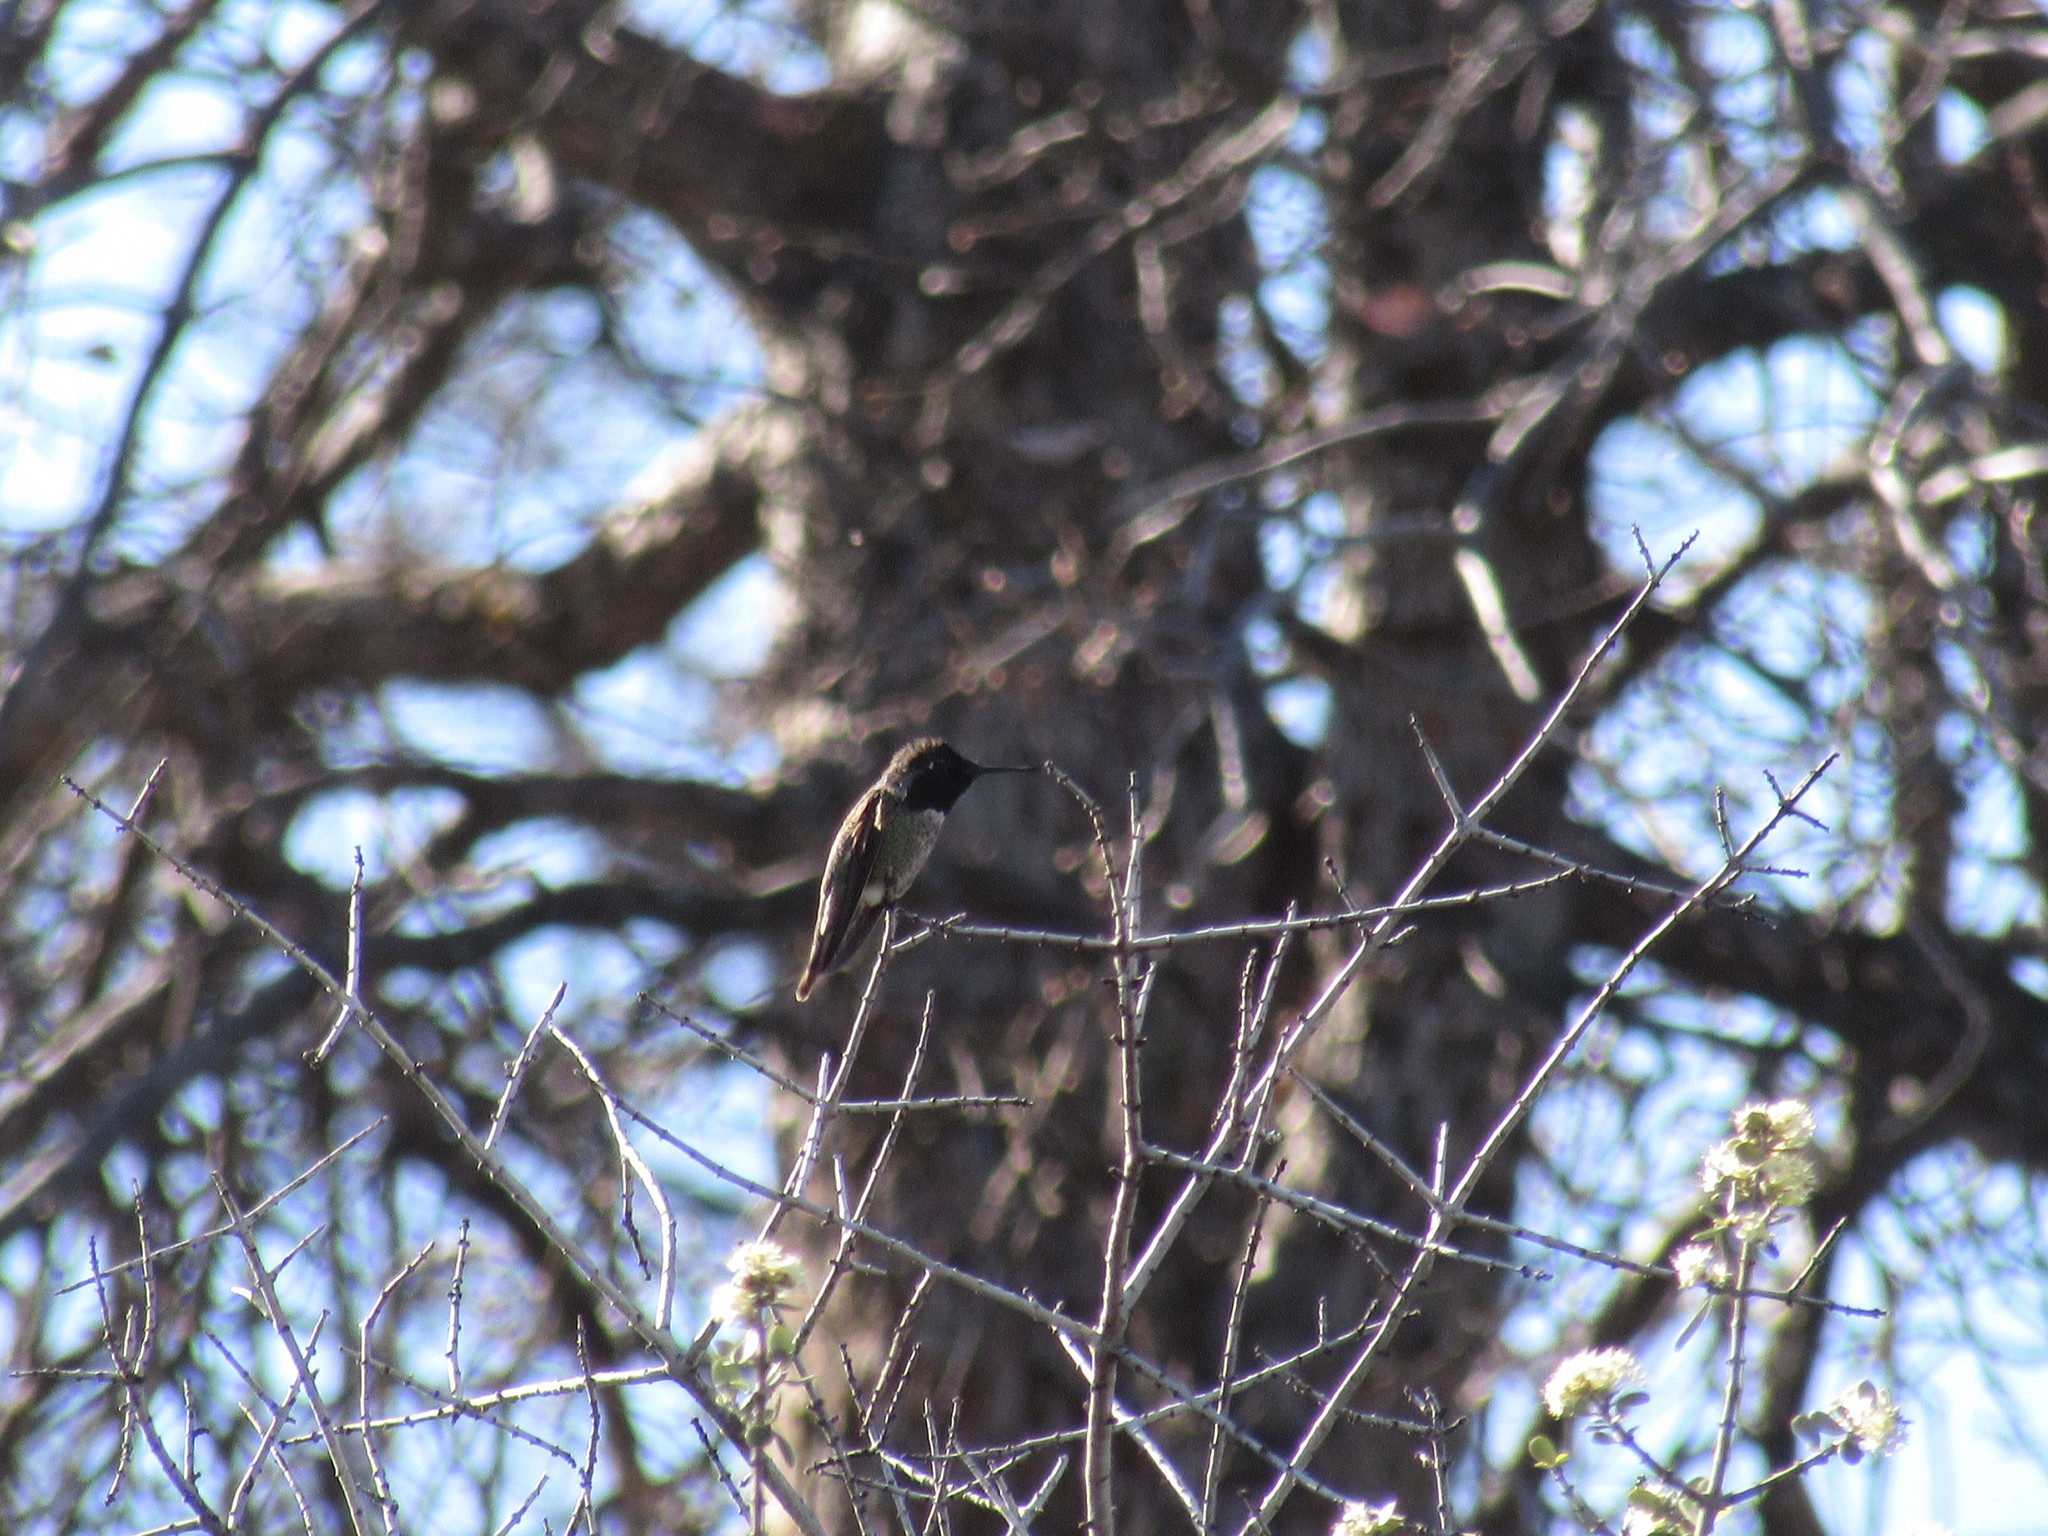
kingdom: Animalia
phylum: Chordata
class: Aves
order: Apodiformes
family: Trochilidae
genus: Calypte
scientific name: Calypte anna
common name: Anna's hummingbird
